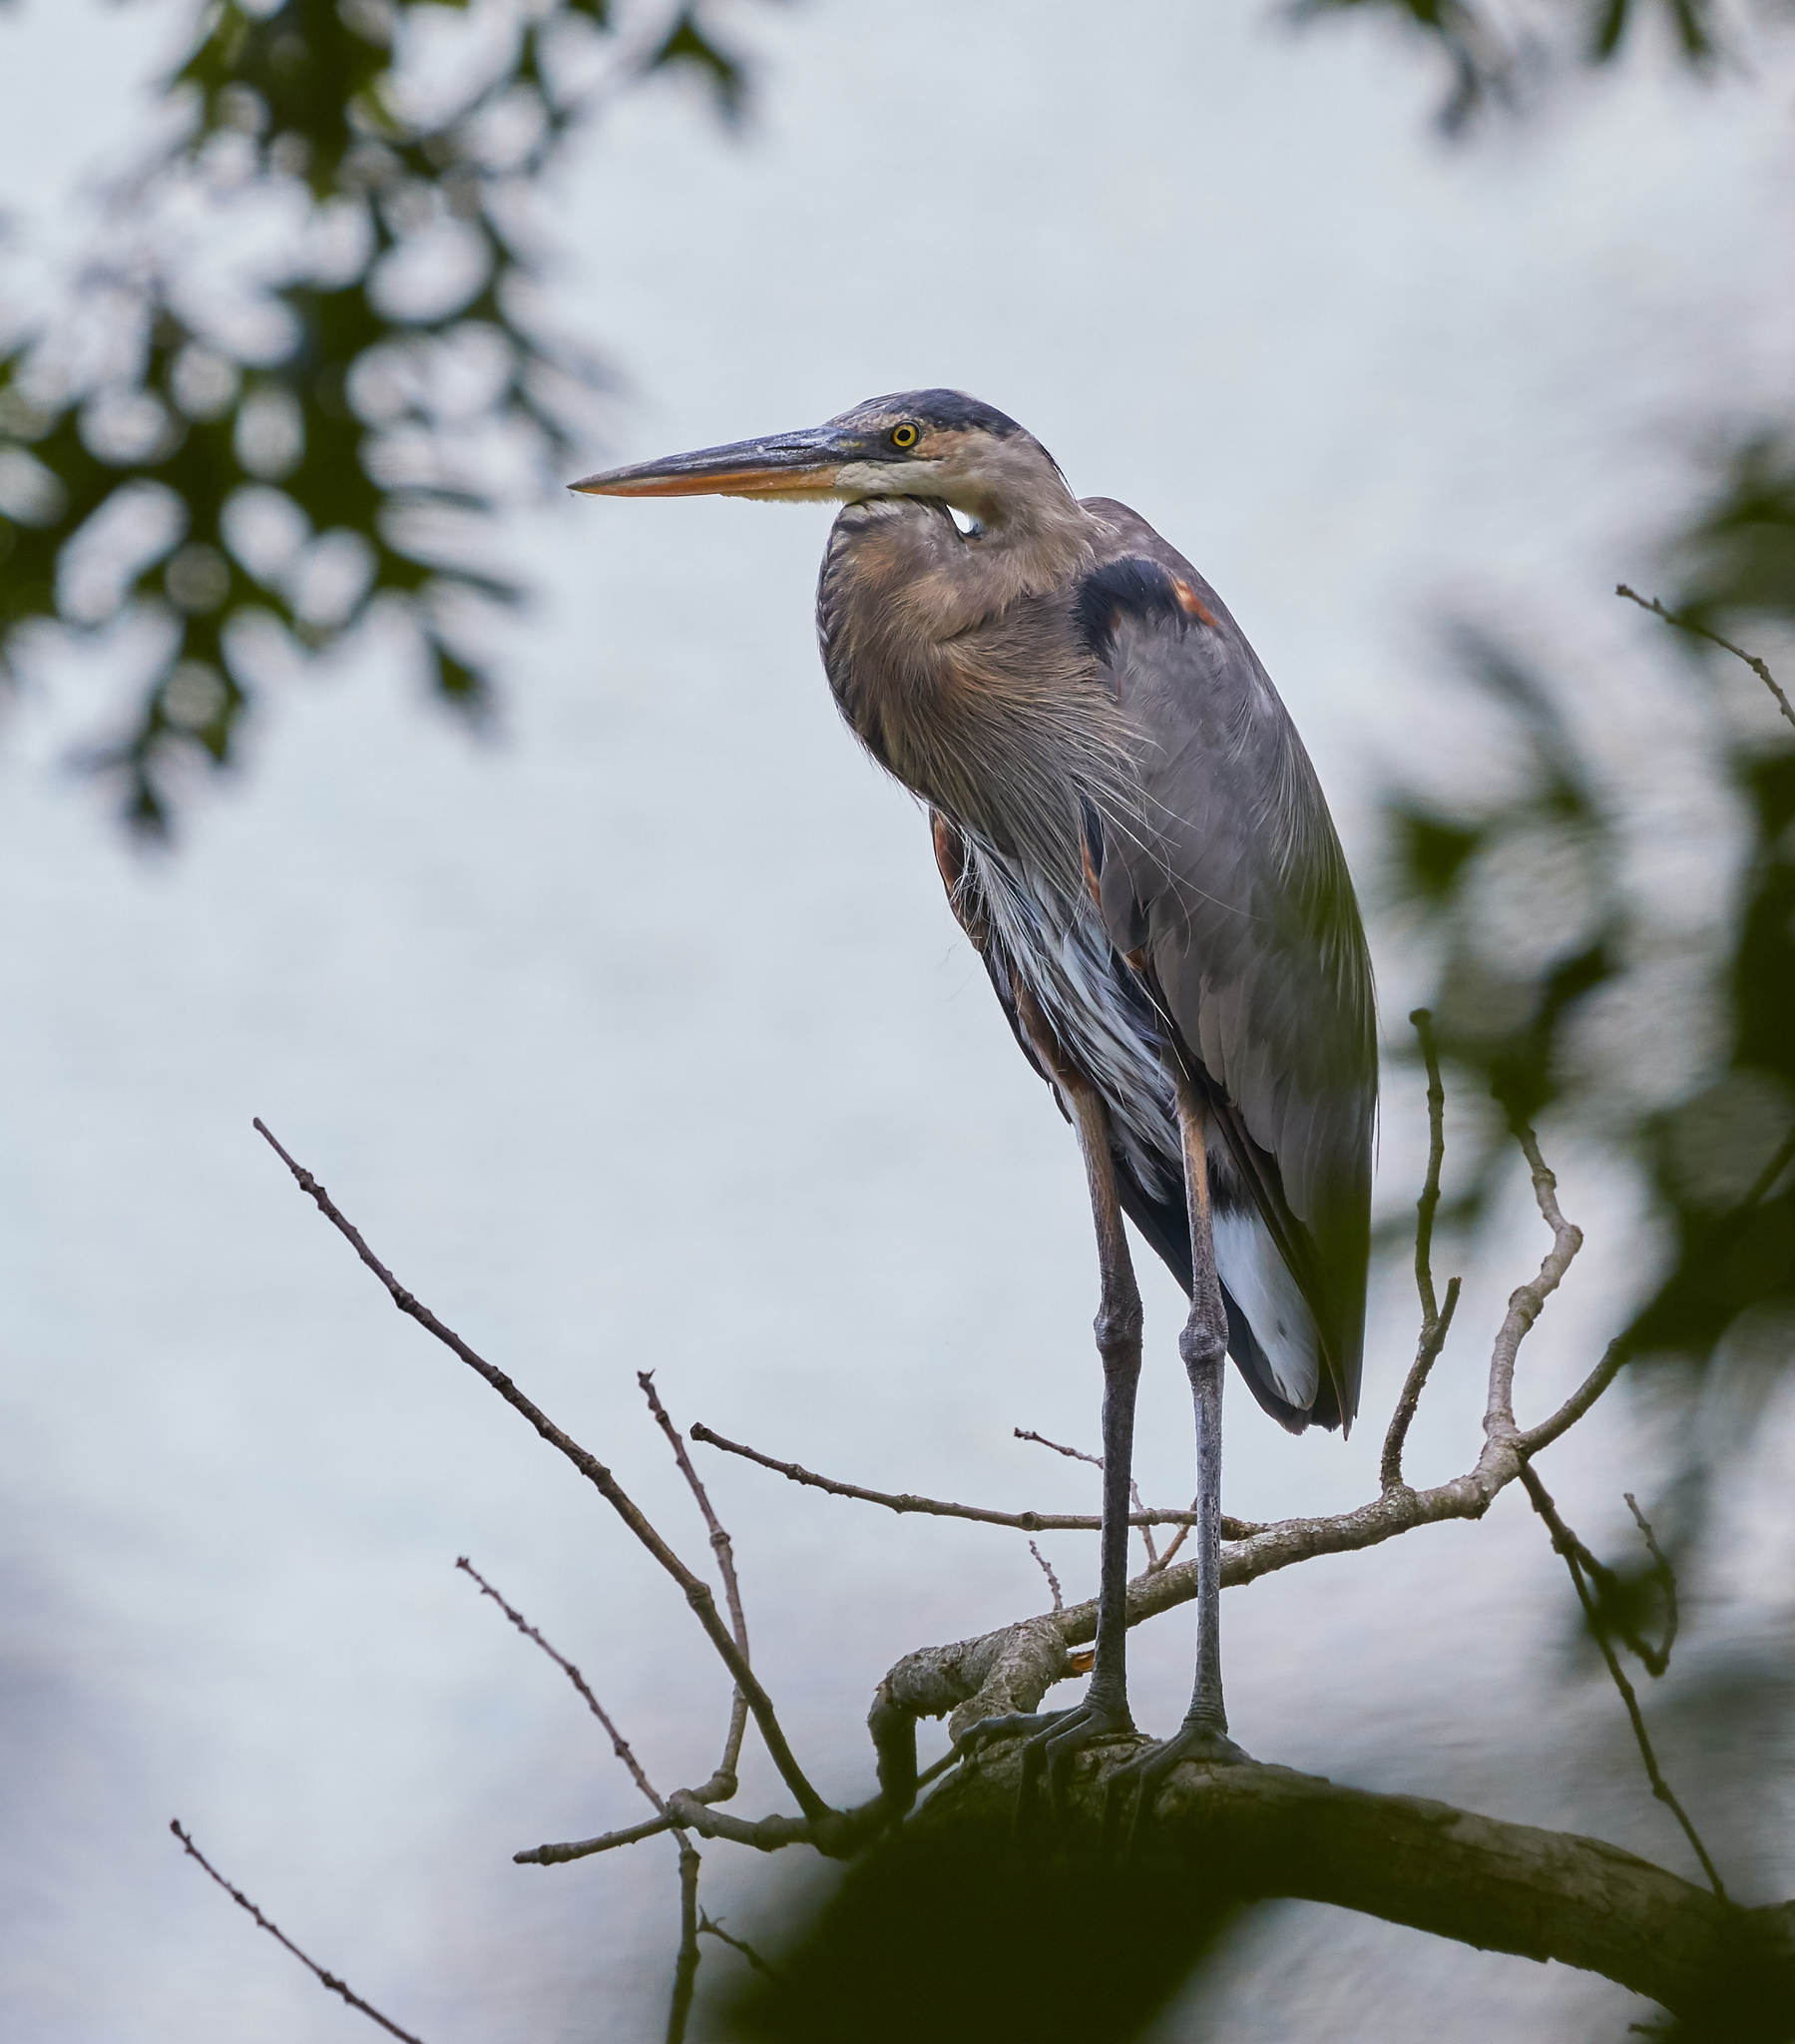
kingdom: Animalia
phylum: Chordata
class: Aves
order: Pelecaniformes
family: Ardeidae
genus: Ardea
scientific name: Ardea herodias
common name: Great blue heron
